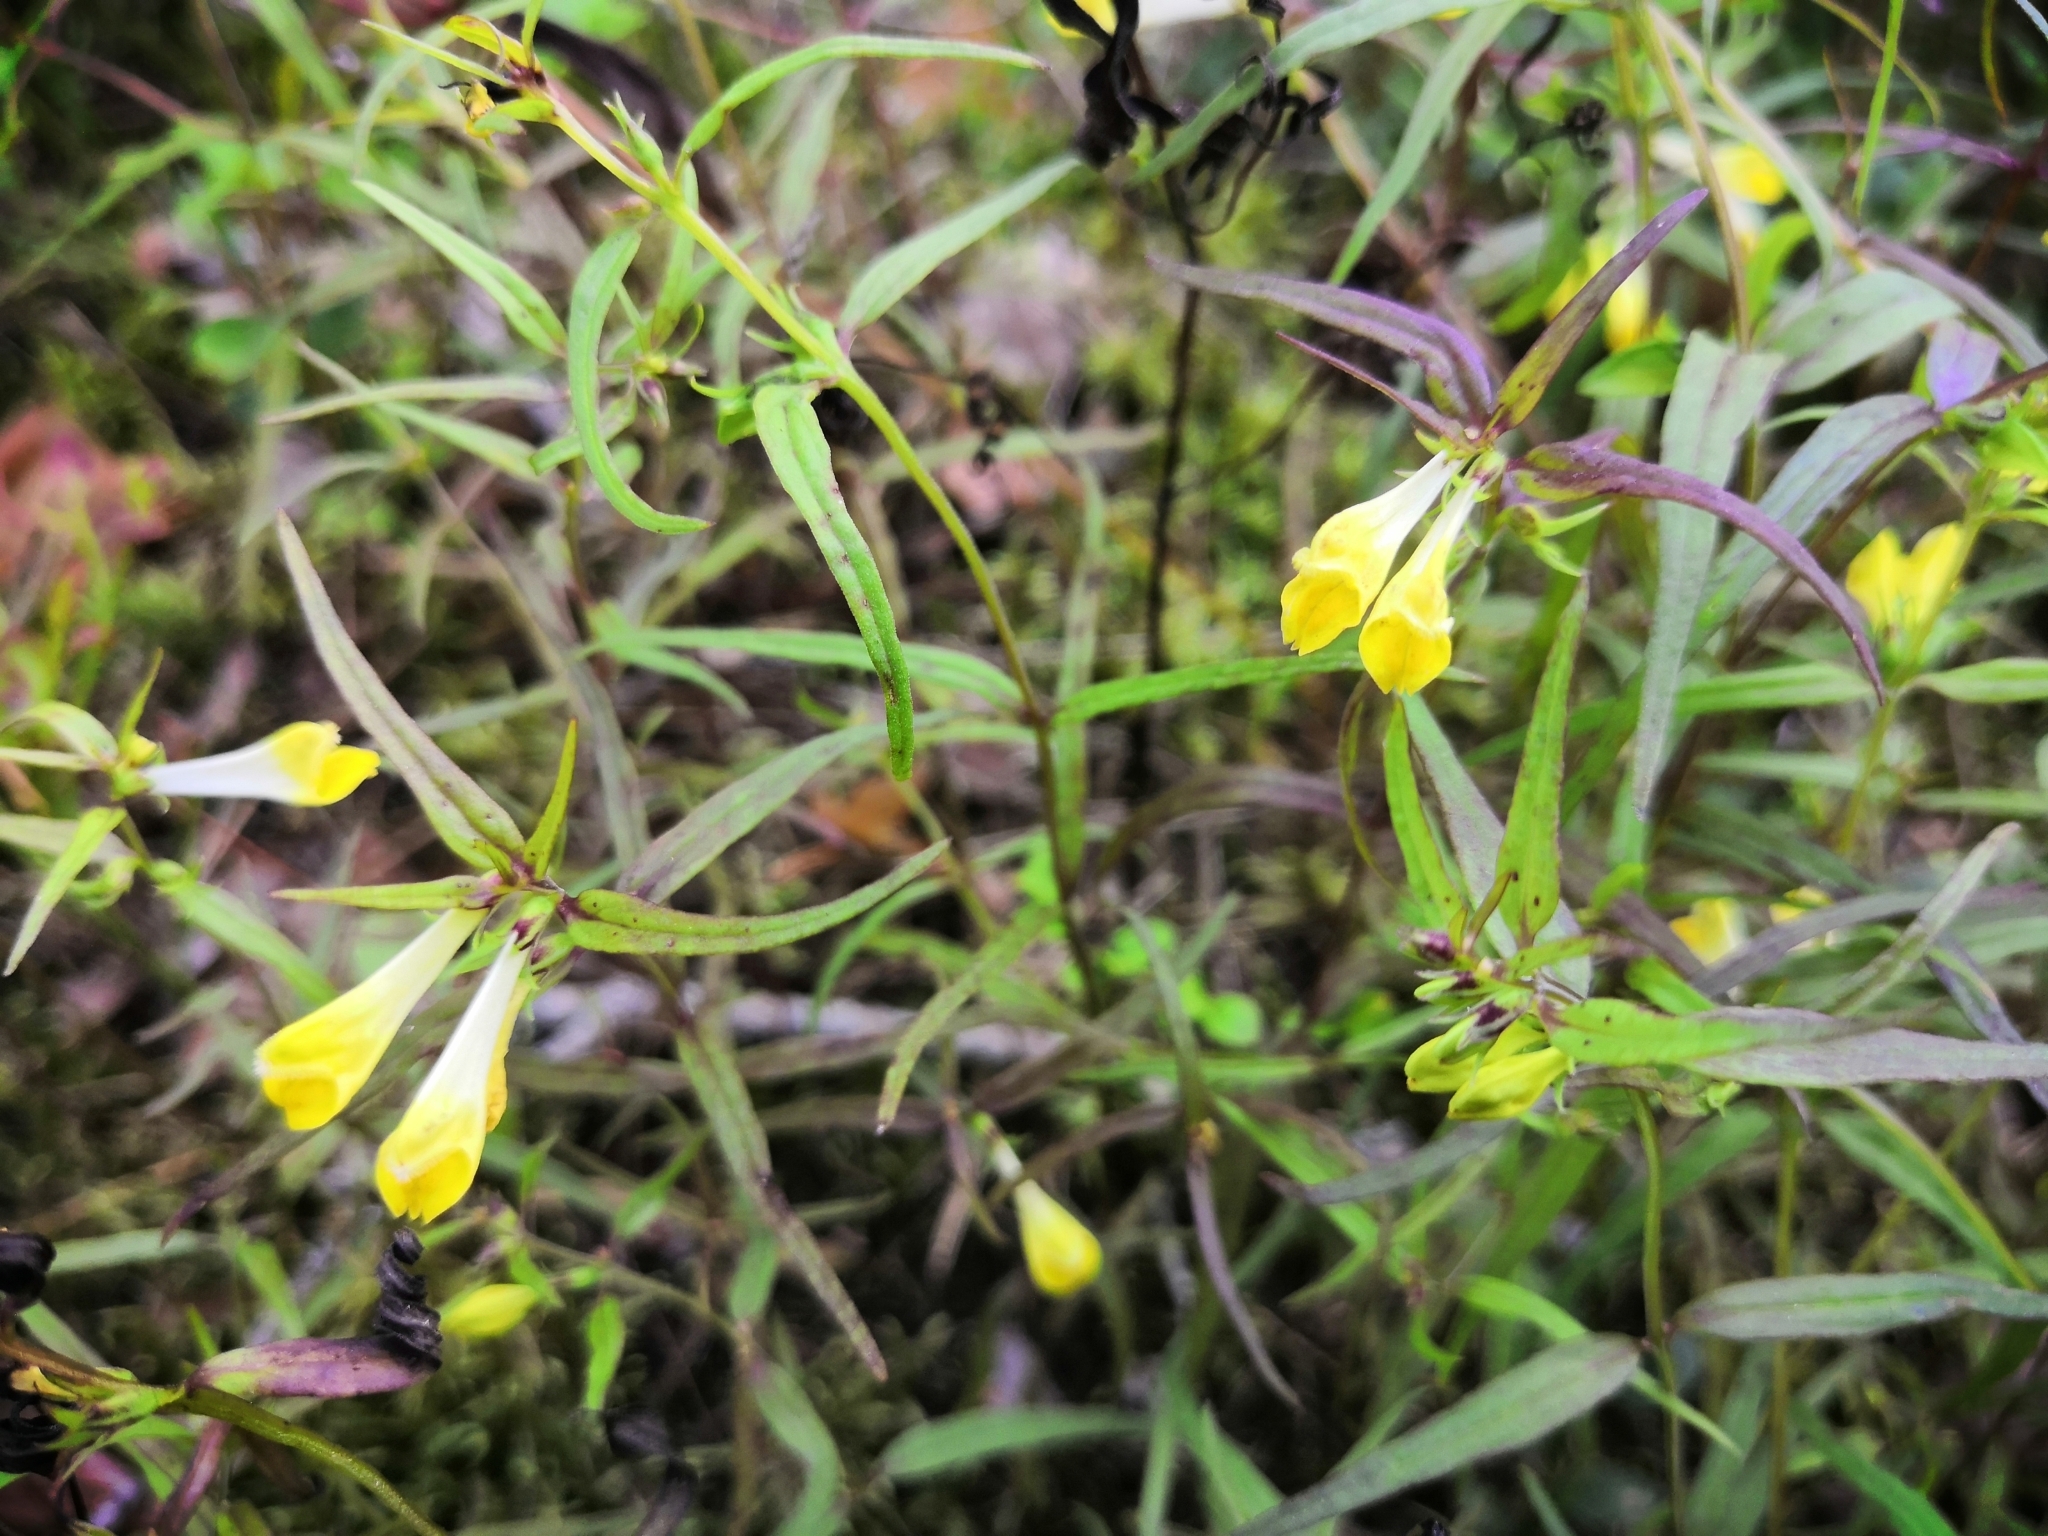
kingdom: Plantae
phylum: Tracheophyta
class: Magnoliopsida
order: Lamiales
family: Orobanchaceae
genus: Melampyrum
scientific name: Melampyrum pratense
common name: Common cow-wheat
